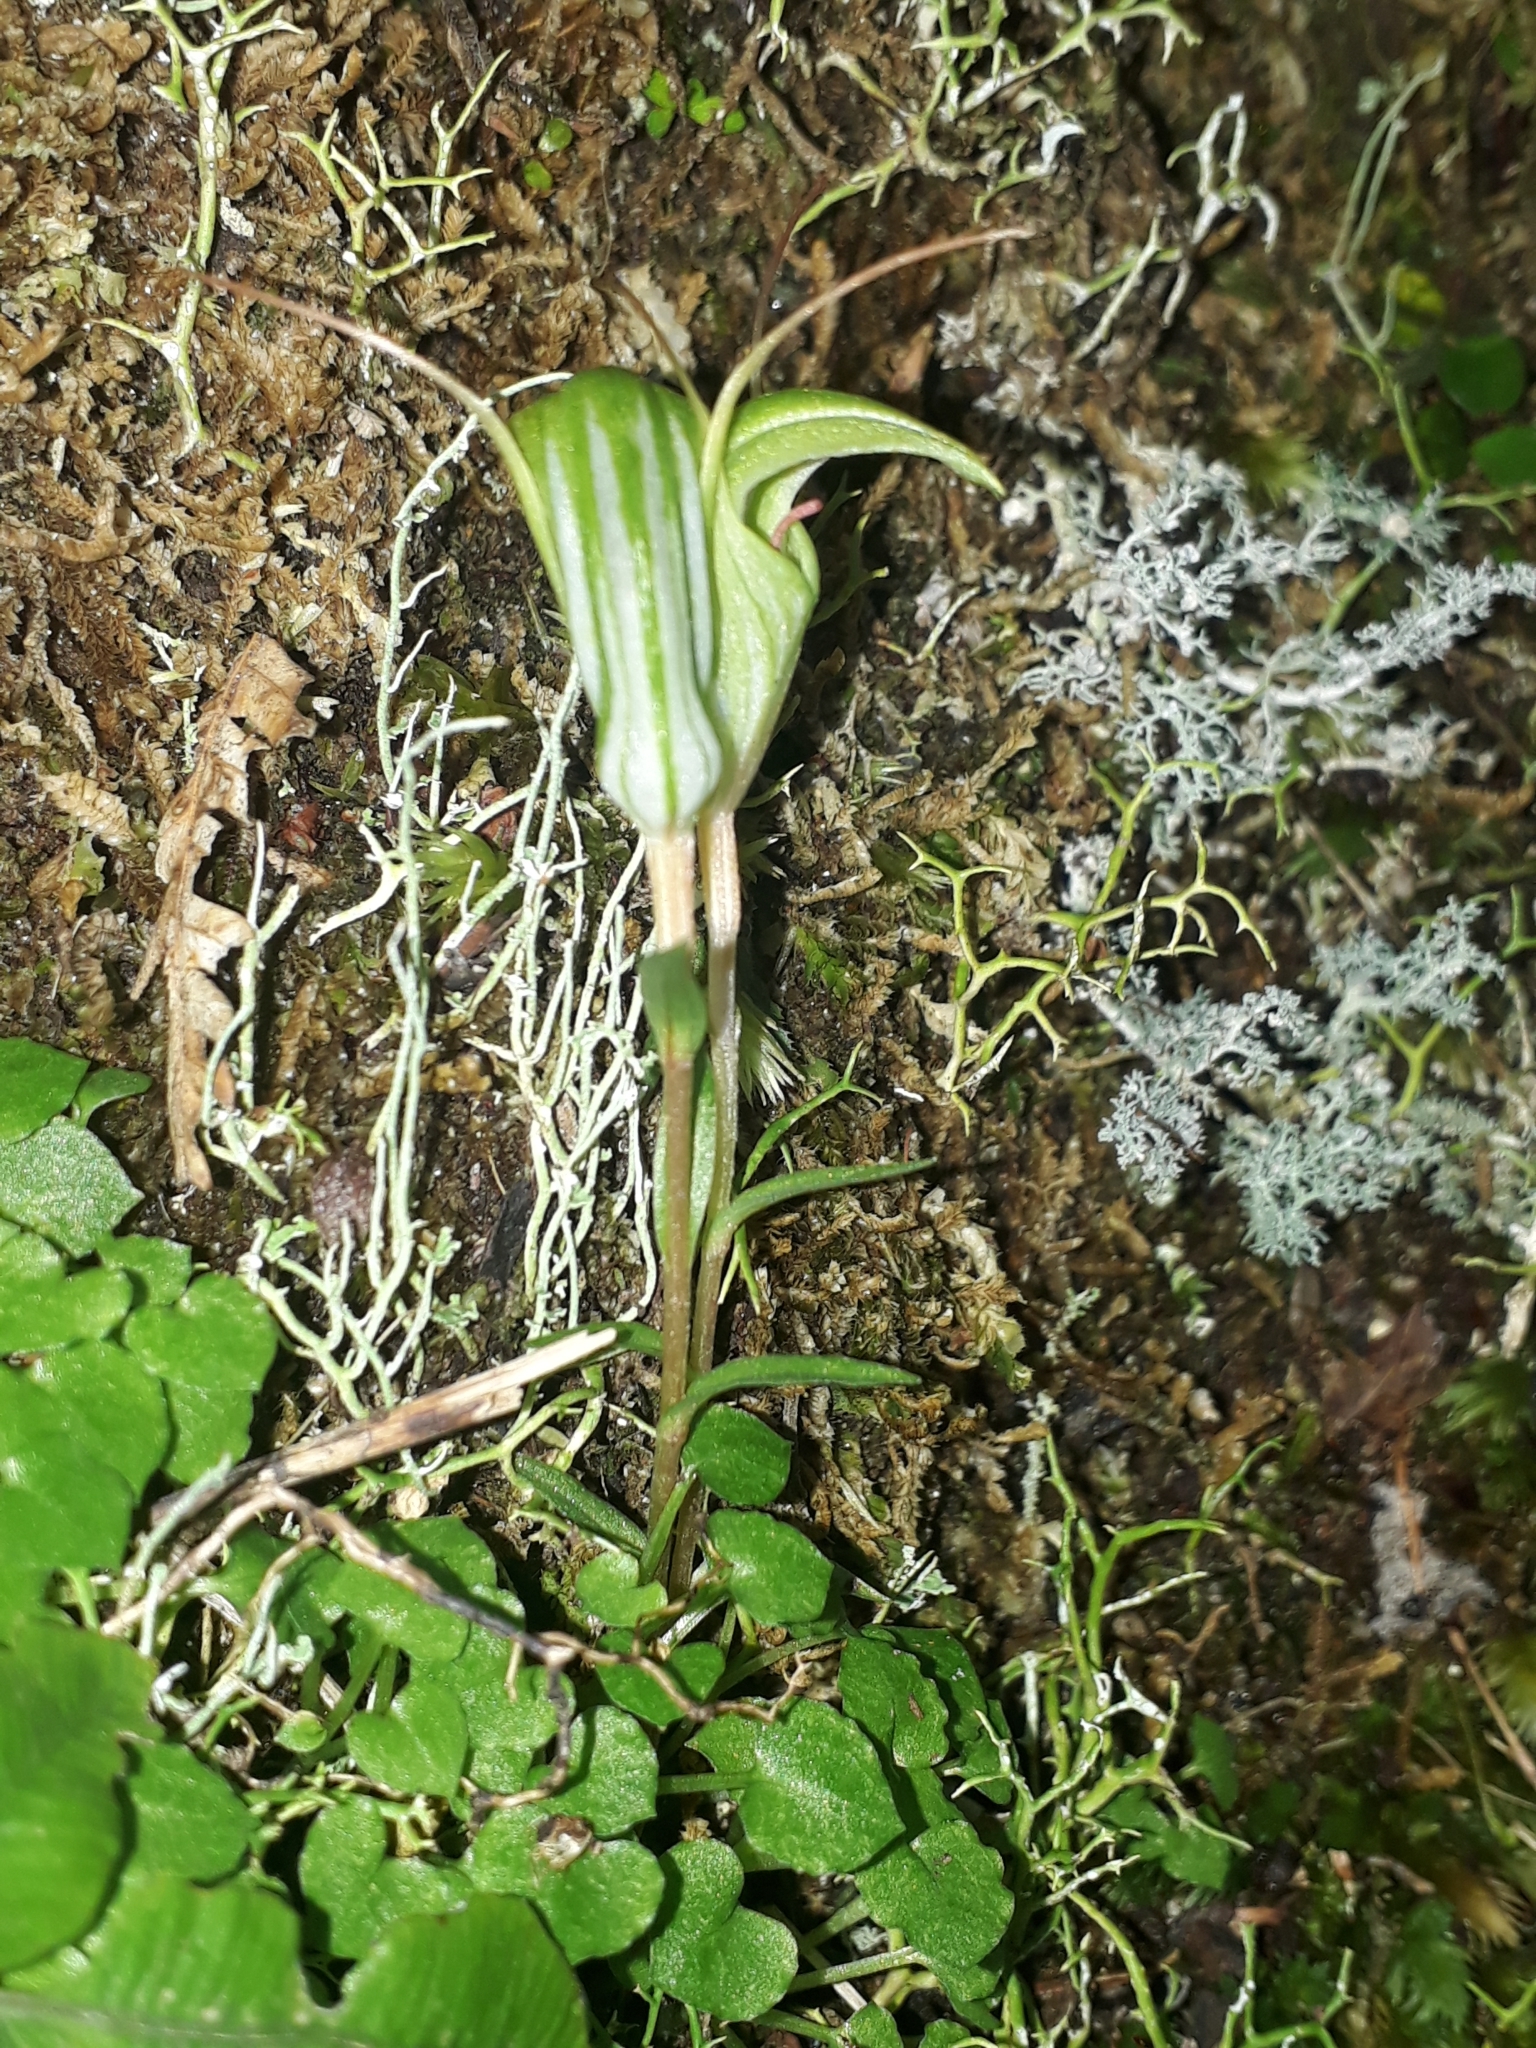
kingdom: Plantae
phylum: Tracheophyta
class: Liliopsida
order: Asparagales
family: Orchidaceae
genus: Pterostylis
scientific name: Pterostylis alobula
